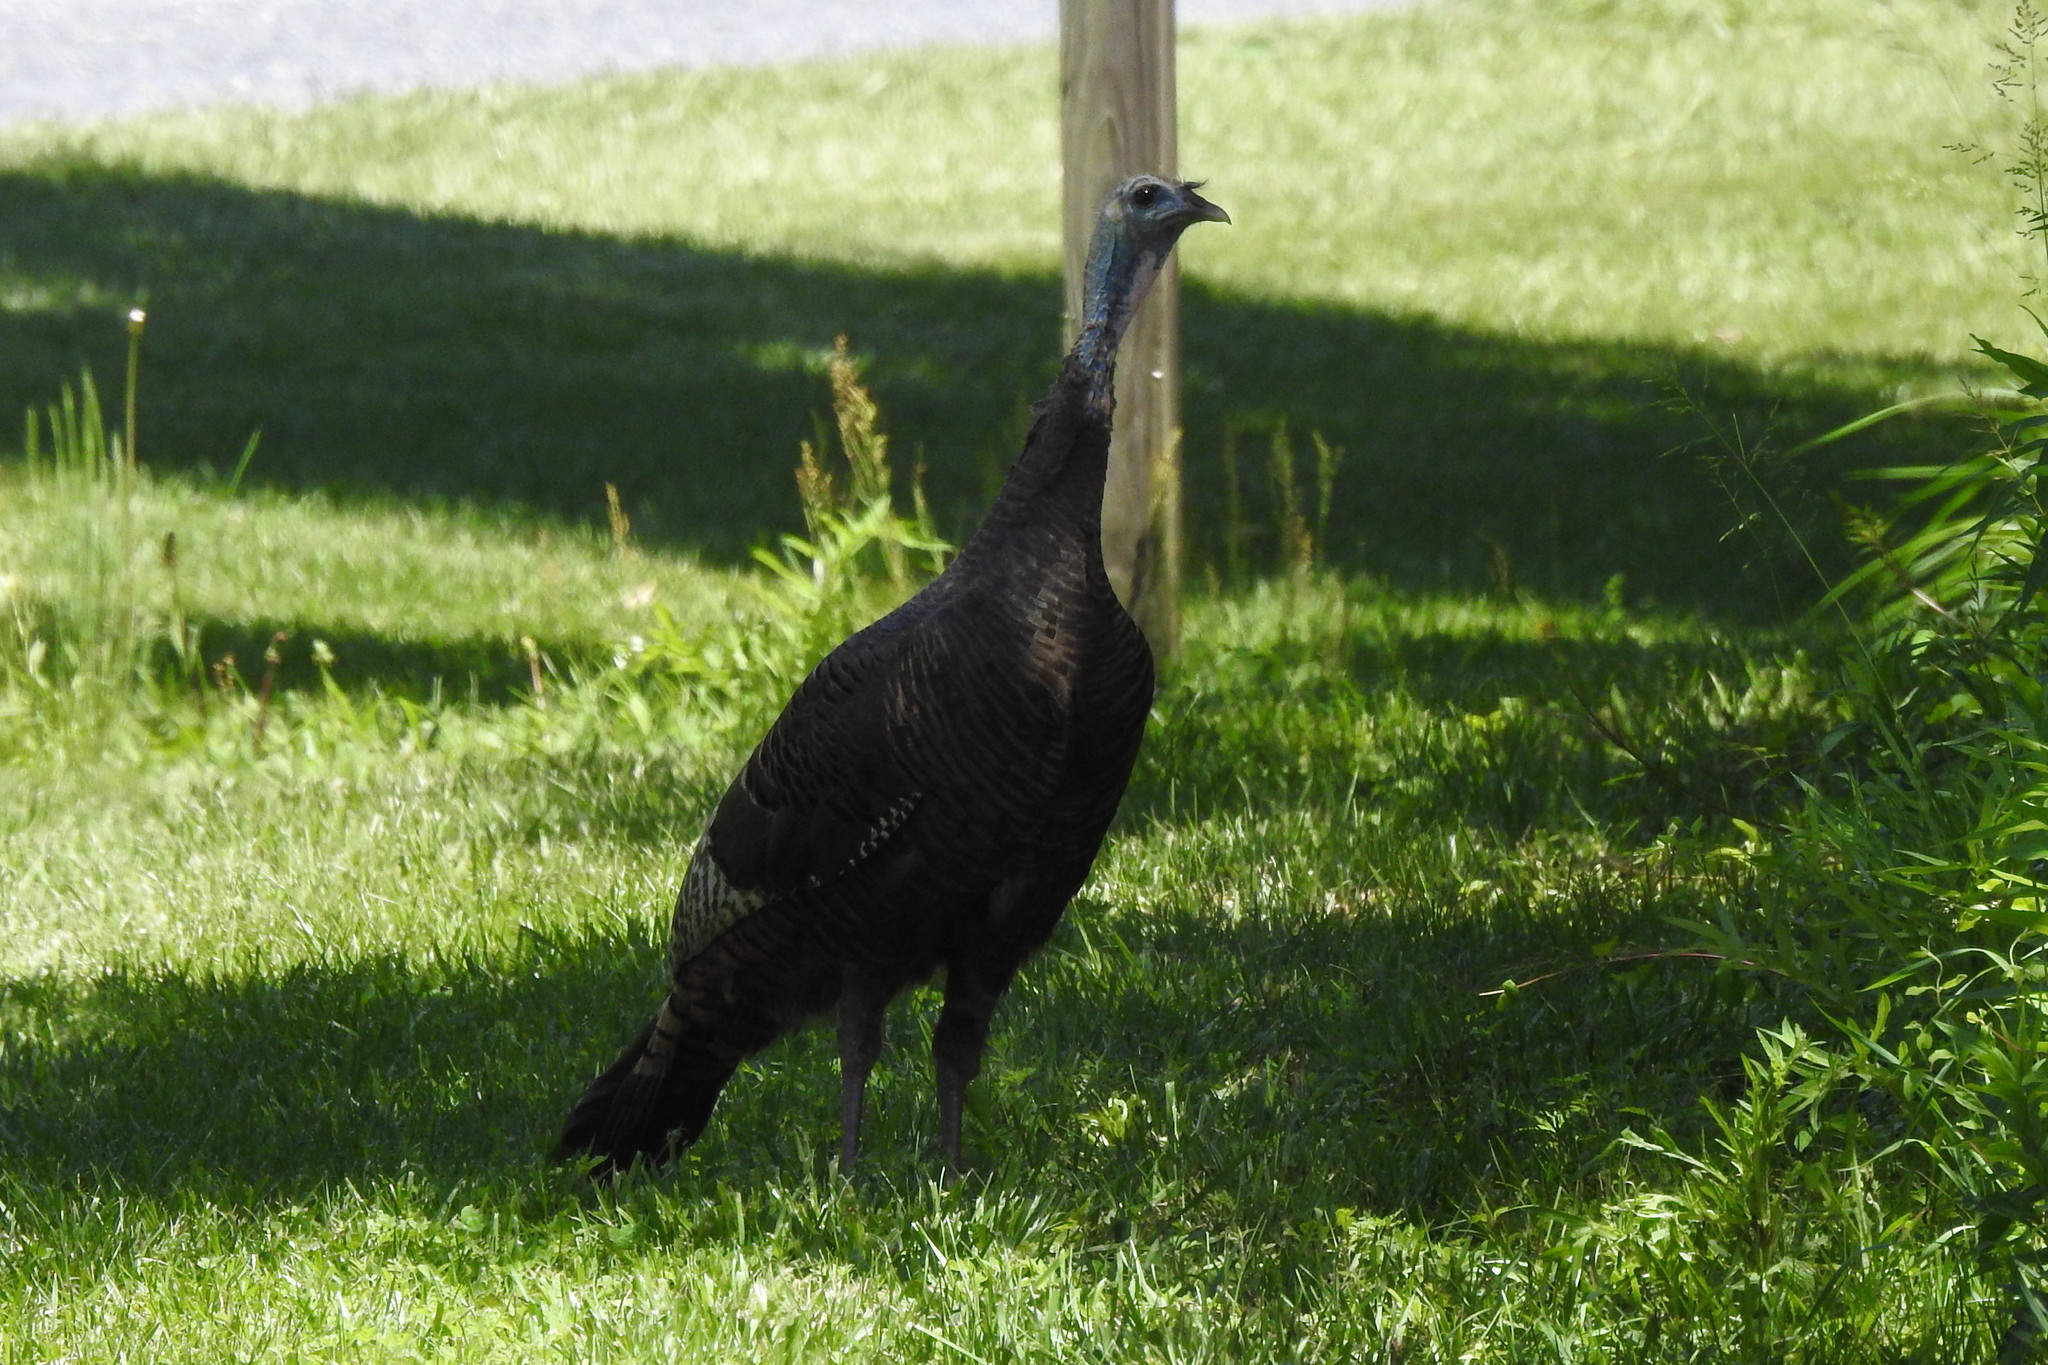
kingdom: Animalia
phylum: Chordata
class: Aves
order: Galliformes
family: Phasianidae
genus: Meleagris
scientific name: Meleagris gallopavo
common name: Wild turkey
